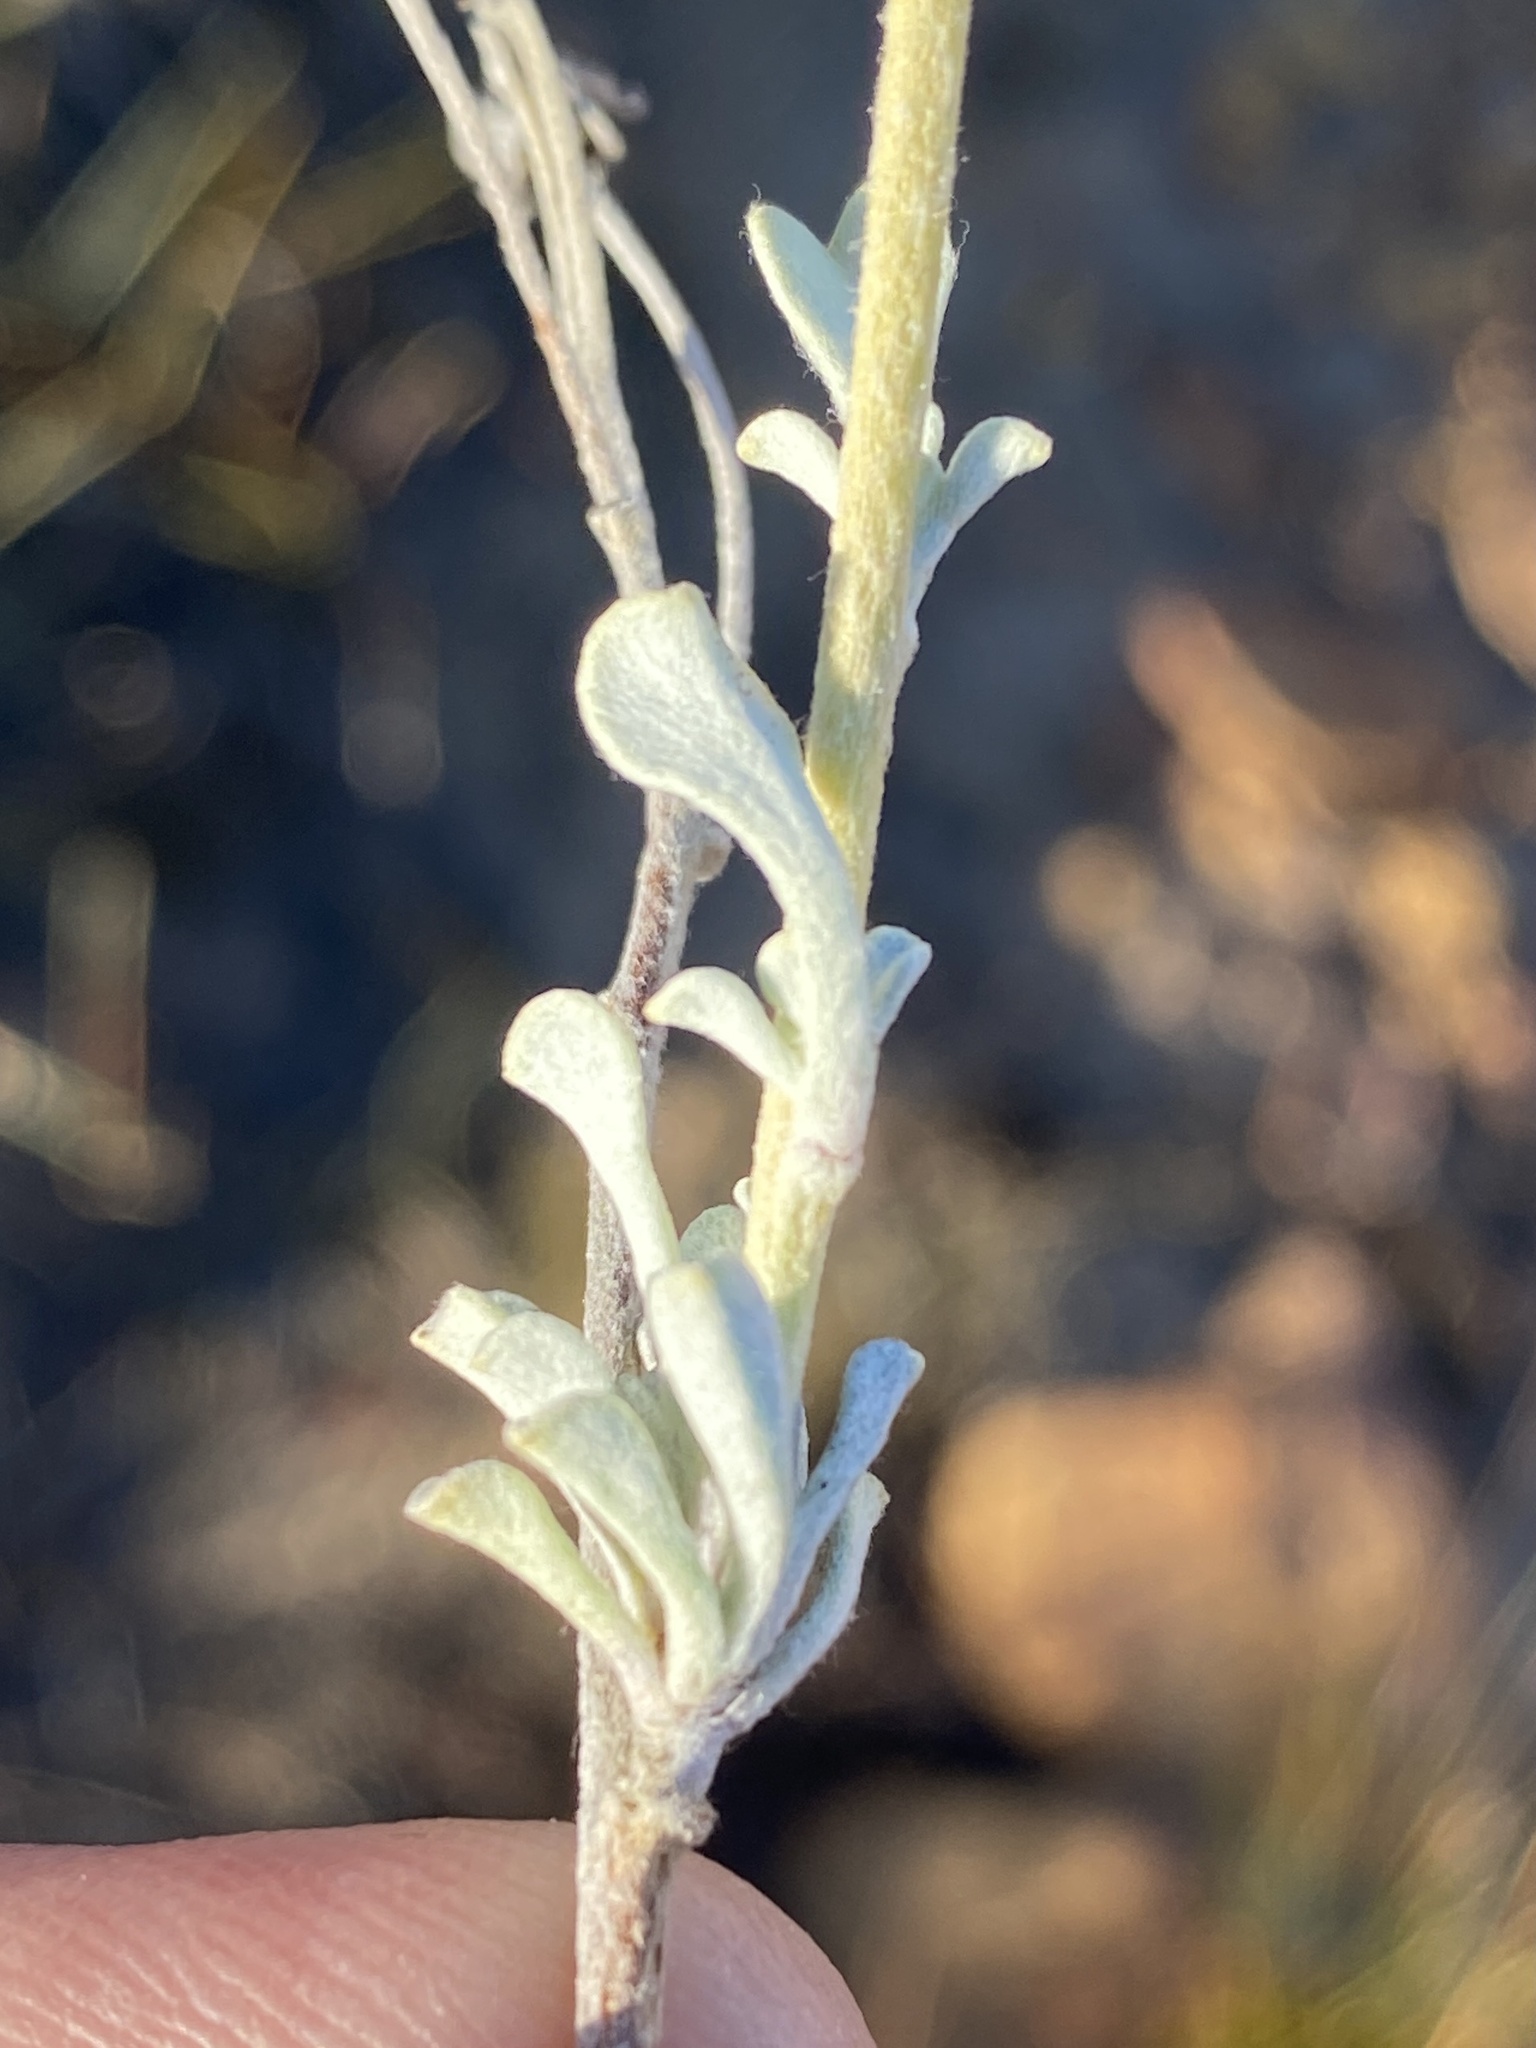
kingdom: Plantae
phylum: Tracheophyta
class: Magnoliopsida
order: Asterales
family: Asteraceae
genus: Helichrysum
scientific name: Helichrysum acrophilum
